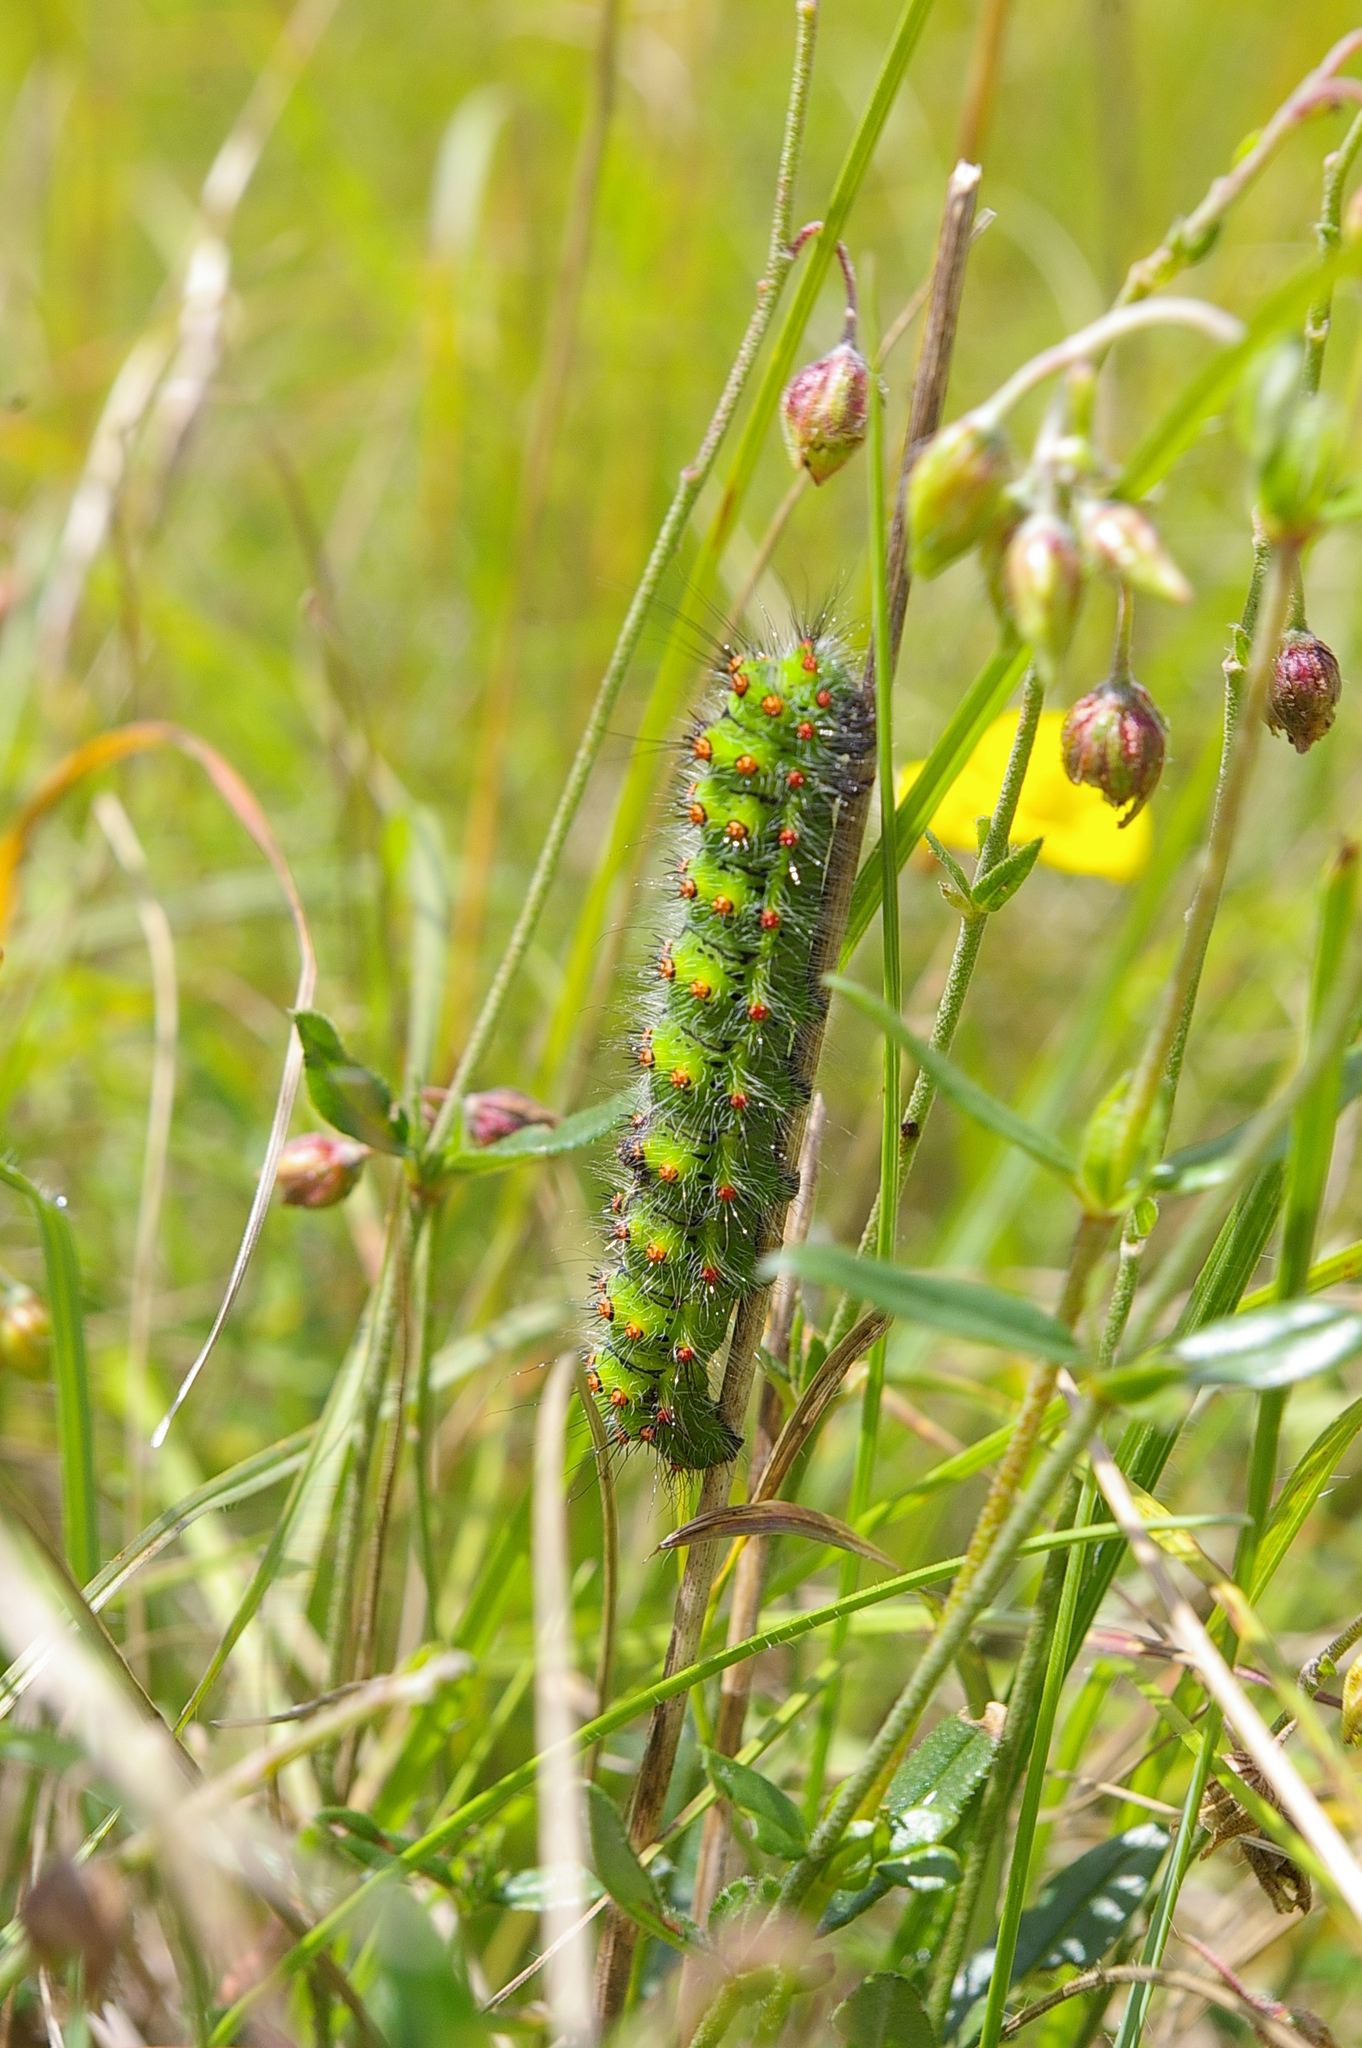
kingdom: Animalia
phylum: Arthropoda
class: Insecta
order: Lepidoptera
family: Saturniidae
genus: Saturnia
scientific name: Saturnia pavonia
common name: Emperor moth
